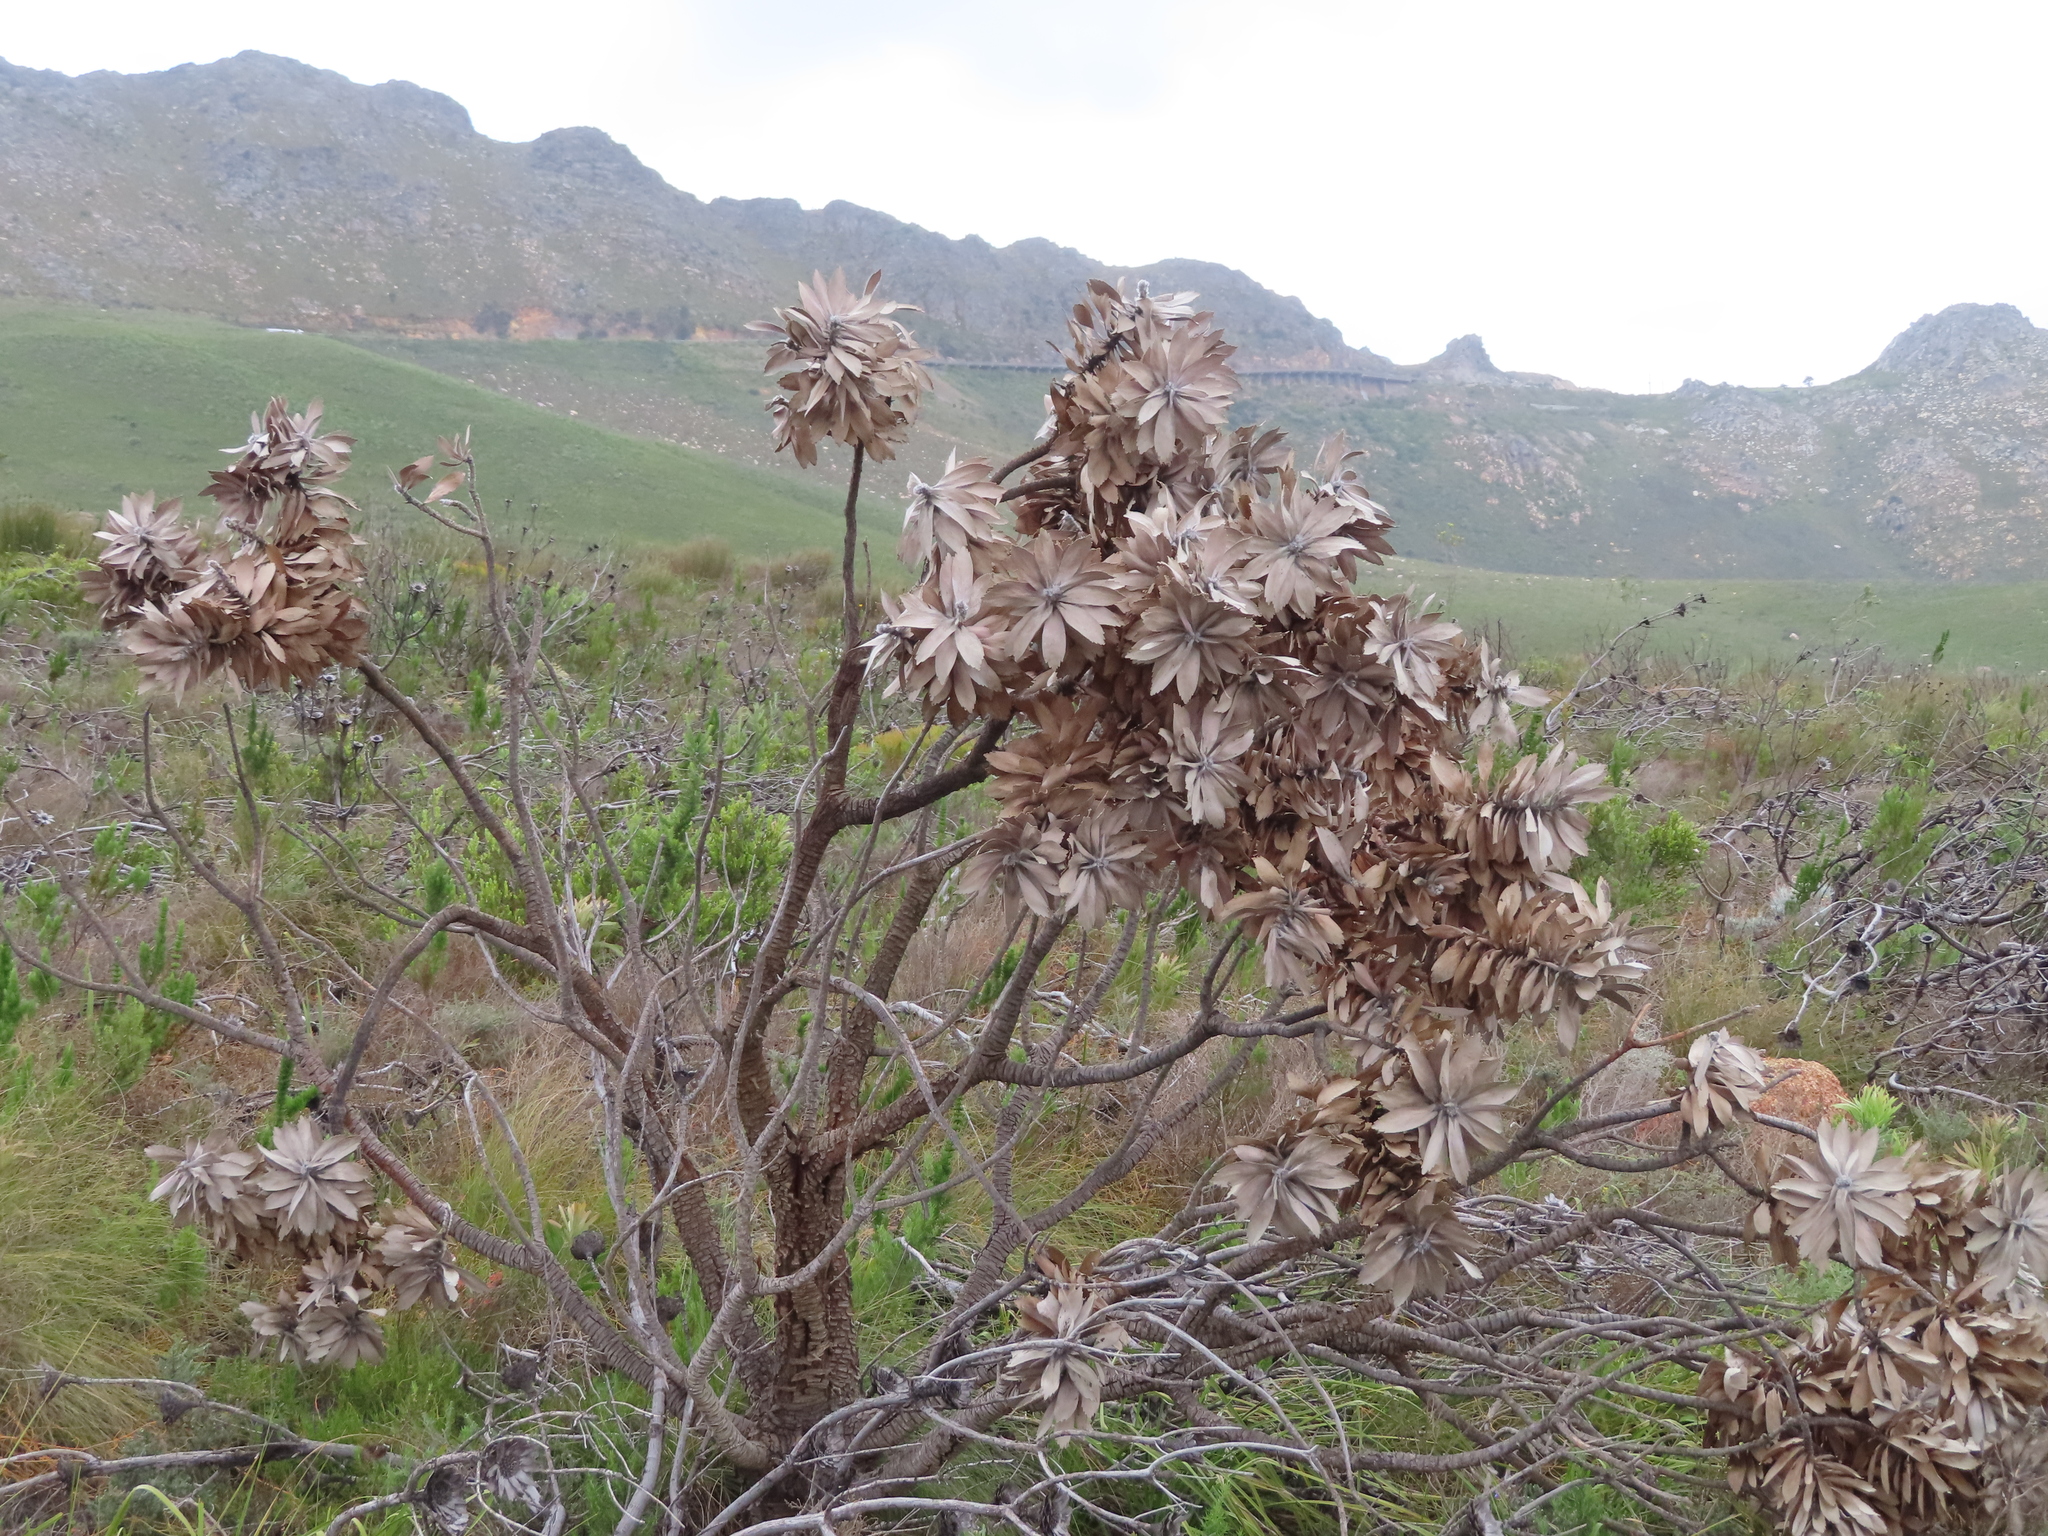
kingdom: Plantae
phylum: Tracheophyta
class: Magnoliopsida
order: Proteales
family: Proteaceae
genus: Leucospermum
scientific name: Leucospermum conocarpodendron
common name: Tree pincushion
